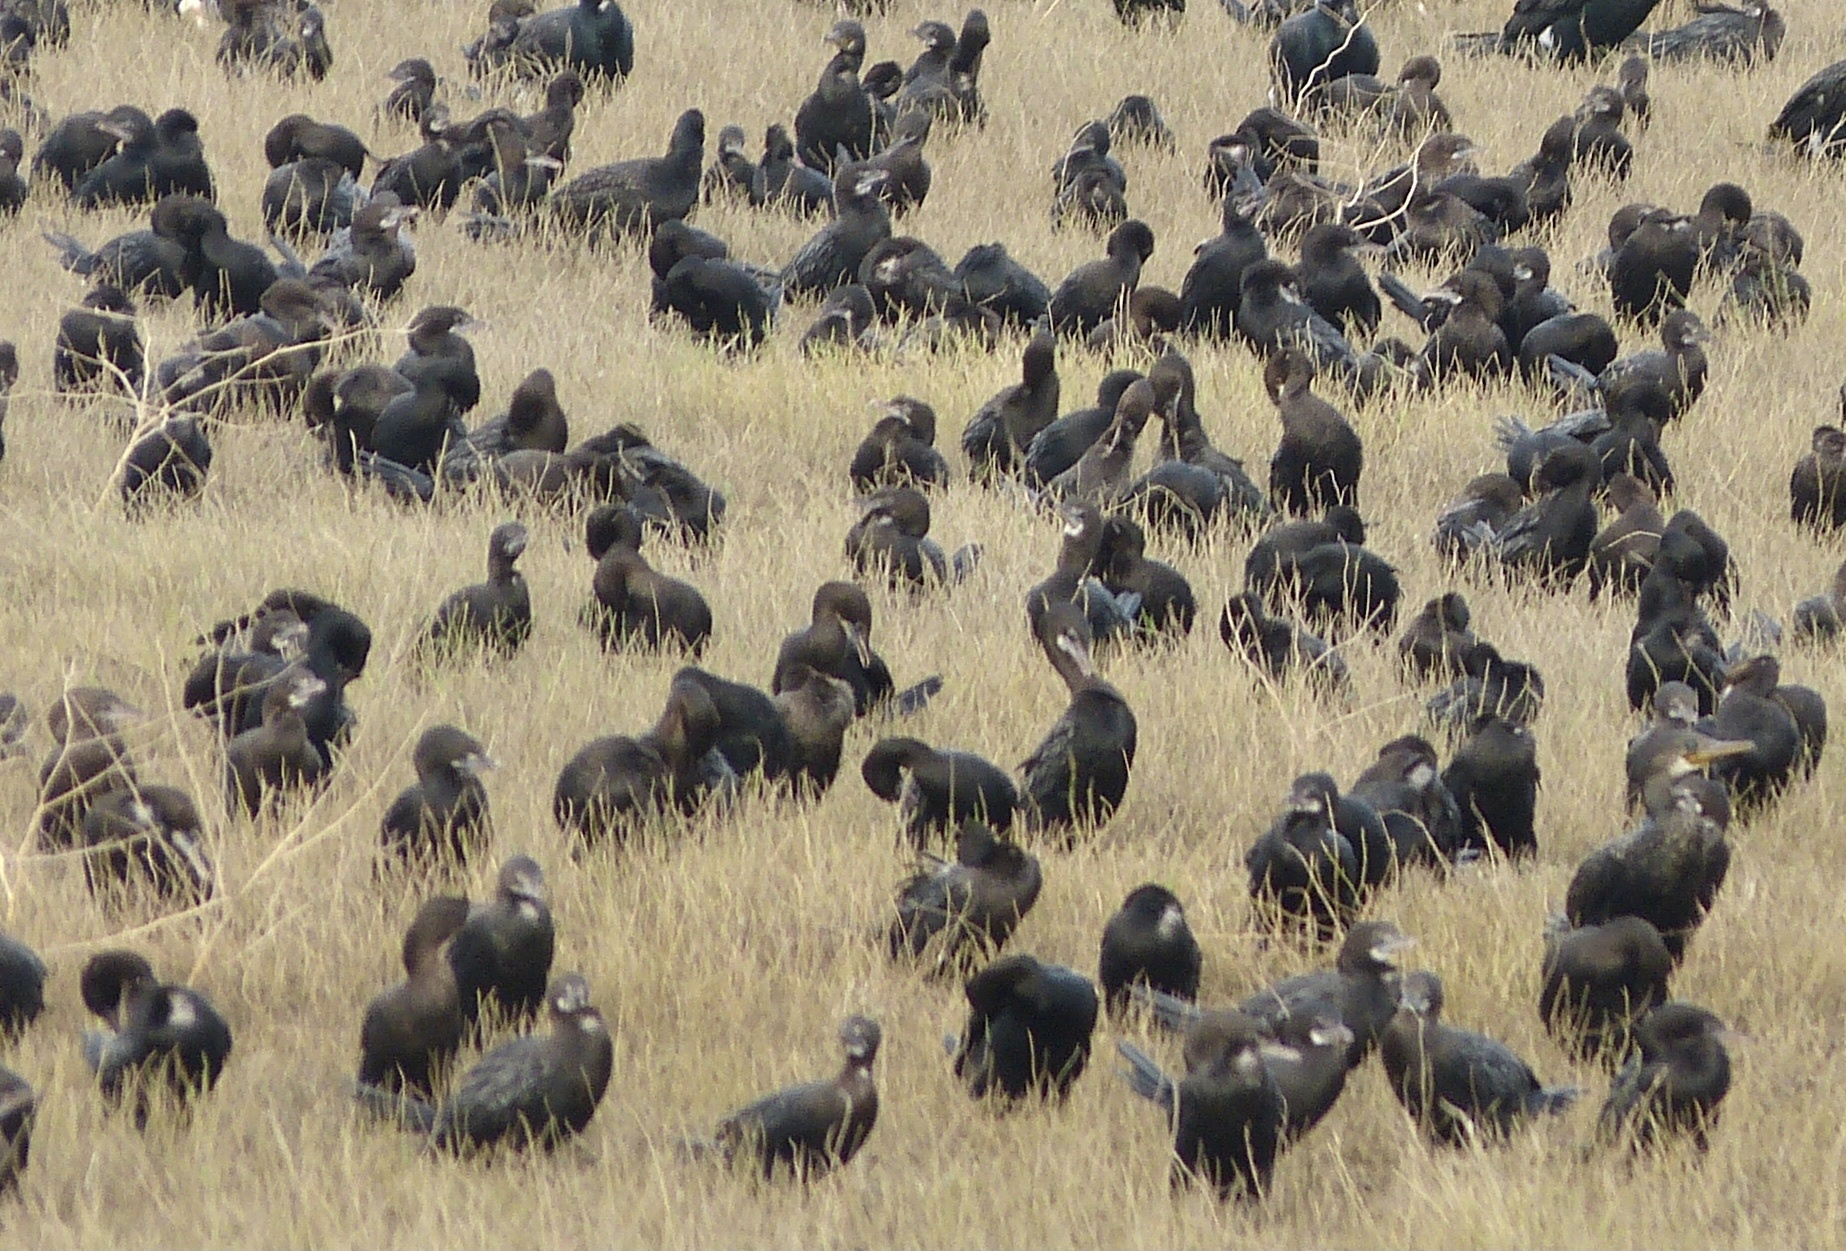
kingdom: Animalia
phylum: Chordata
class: Aves
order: Suliformes
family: Phalacrocoracidae
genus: Microcarbo
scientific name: Microcarbo niger
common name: Little cormorant
